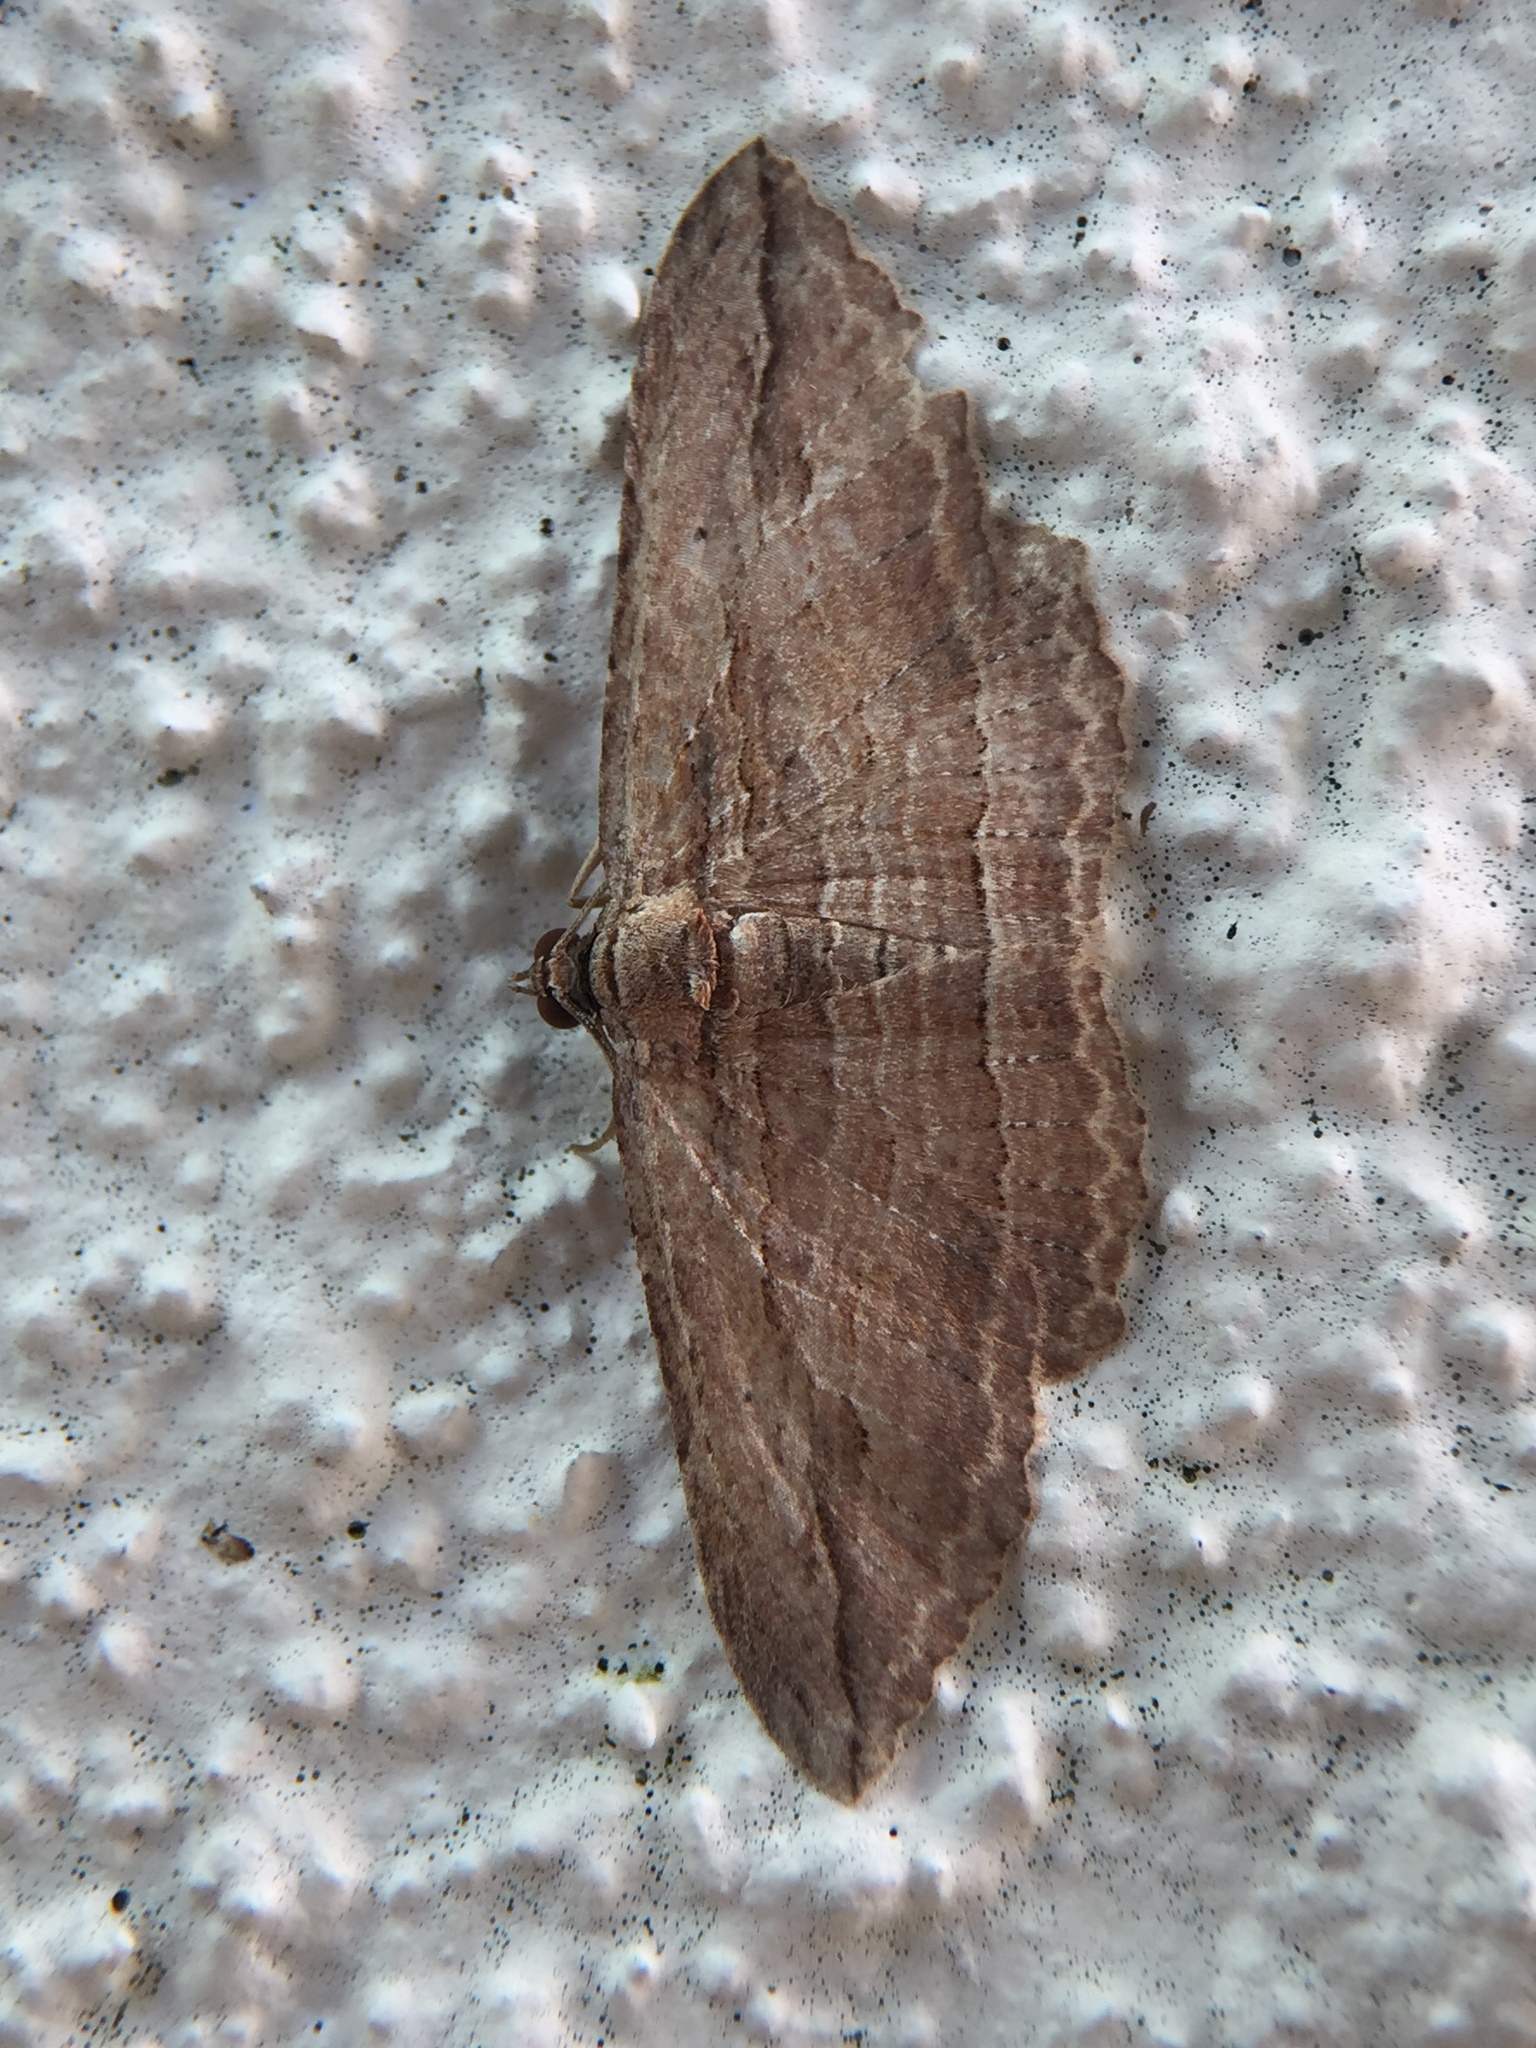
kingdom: Animalia
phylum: Arthropoda
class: Insecta
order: Lepidoptera
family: Geometridae
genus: Austrocidaria
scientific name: Austrocidaria gobiata
